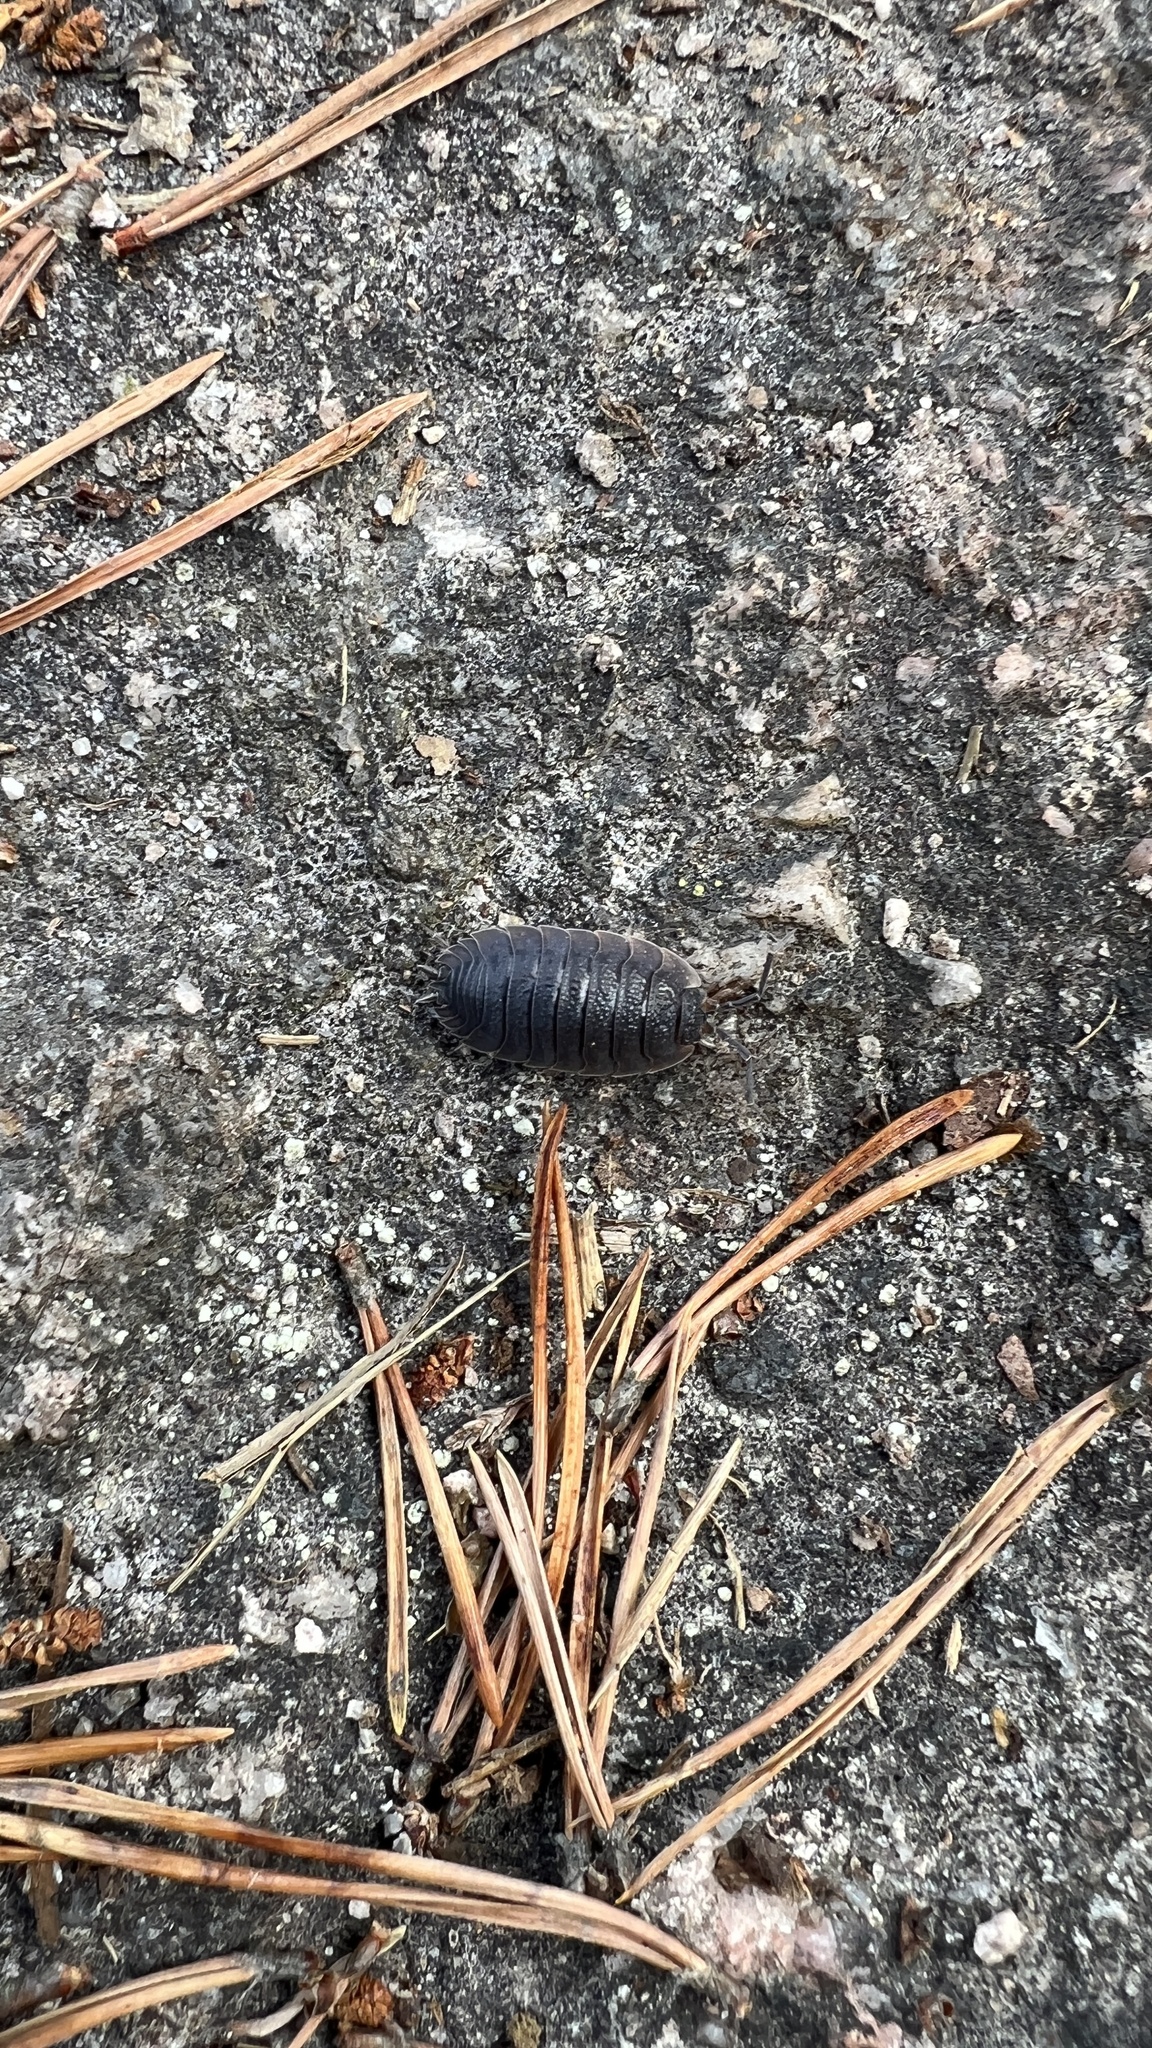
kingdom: Animalia
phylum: Arthropoda
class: Malacostraca
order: Isopoda
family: Porcellionidae
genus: Porcellio
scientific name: Porcellio scaber
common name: Common rough woodlouse
